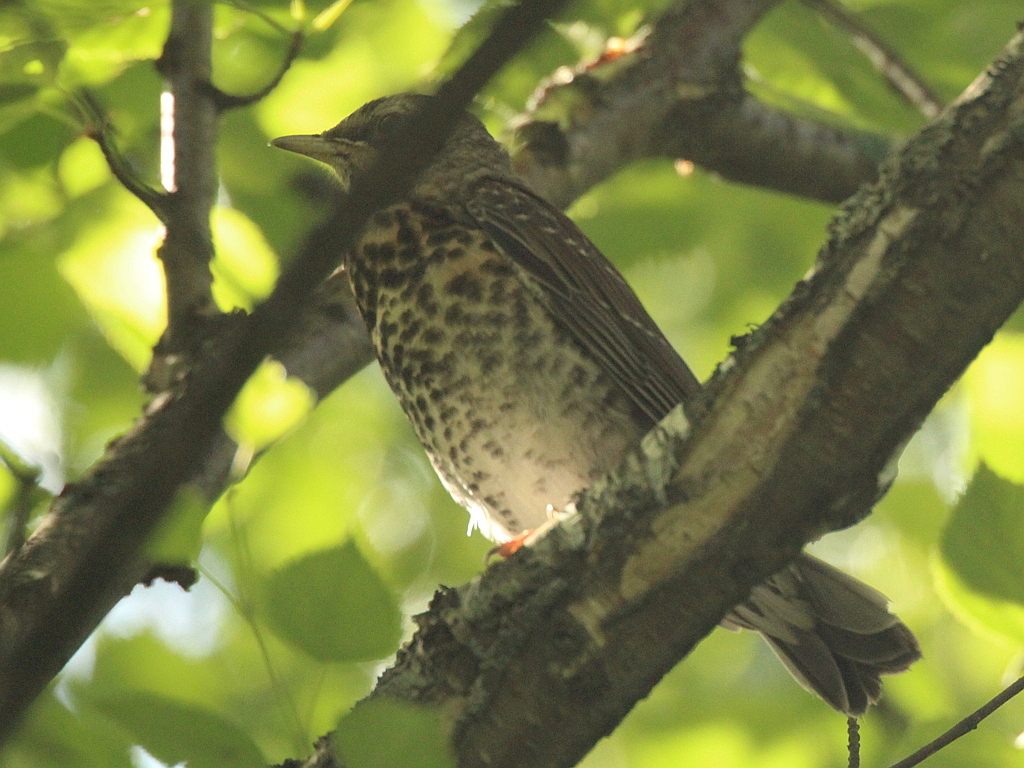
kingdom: Animalia
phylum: Chordata
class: Aves
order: Passeriformes
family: Turdidae
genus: Turdus
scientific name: Turdus pilaris
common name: Fieldfare
